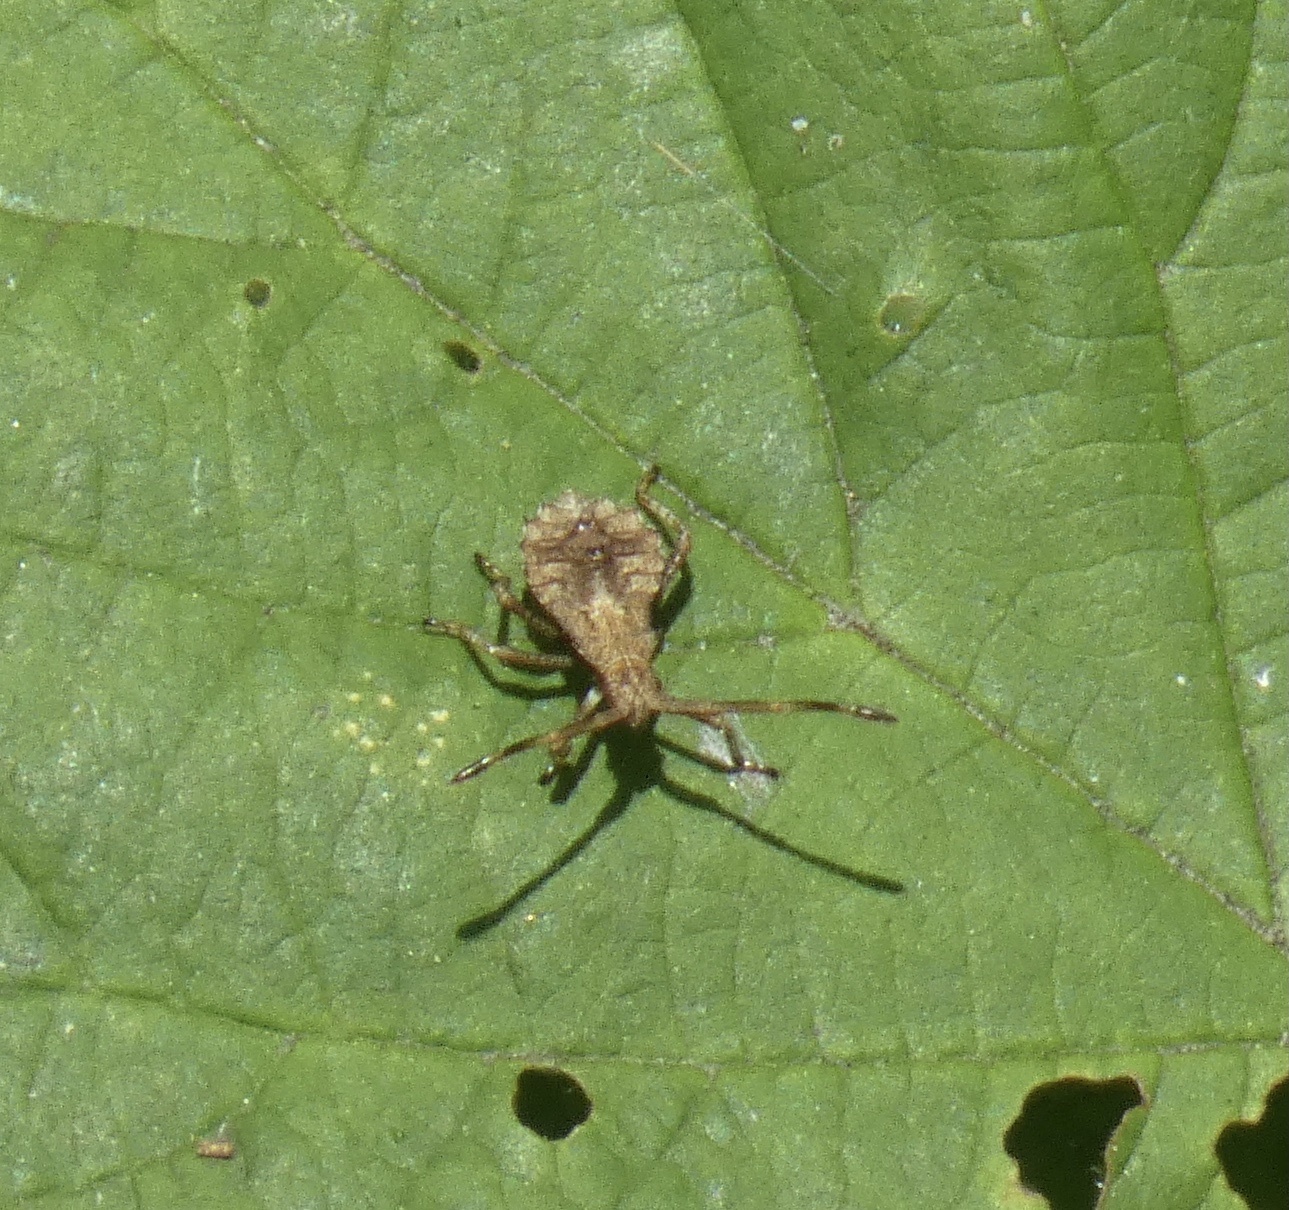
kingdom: Animalia
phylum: Arthropoda
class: Insecta
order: Hemiptera
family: Coreidae
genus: Coreus
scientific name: Coreus marginatus
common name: Dock bug
